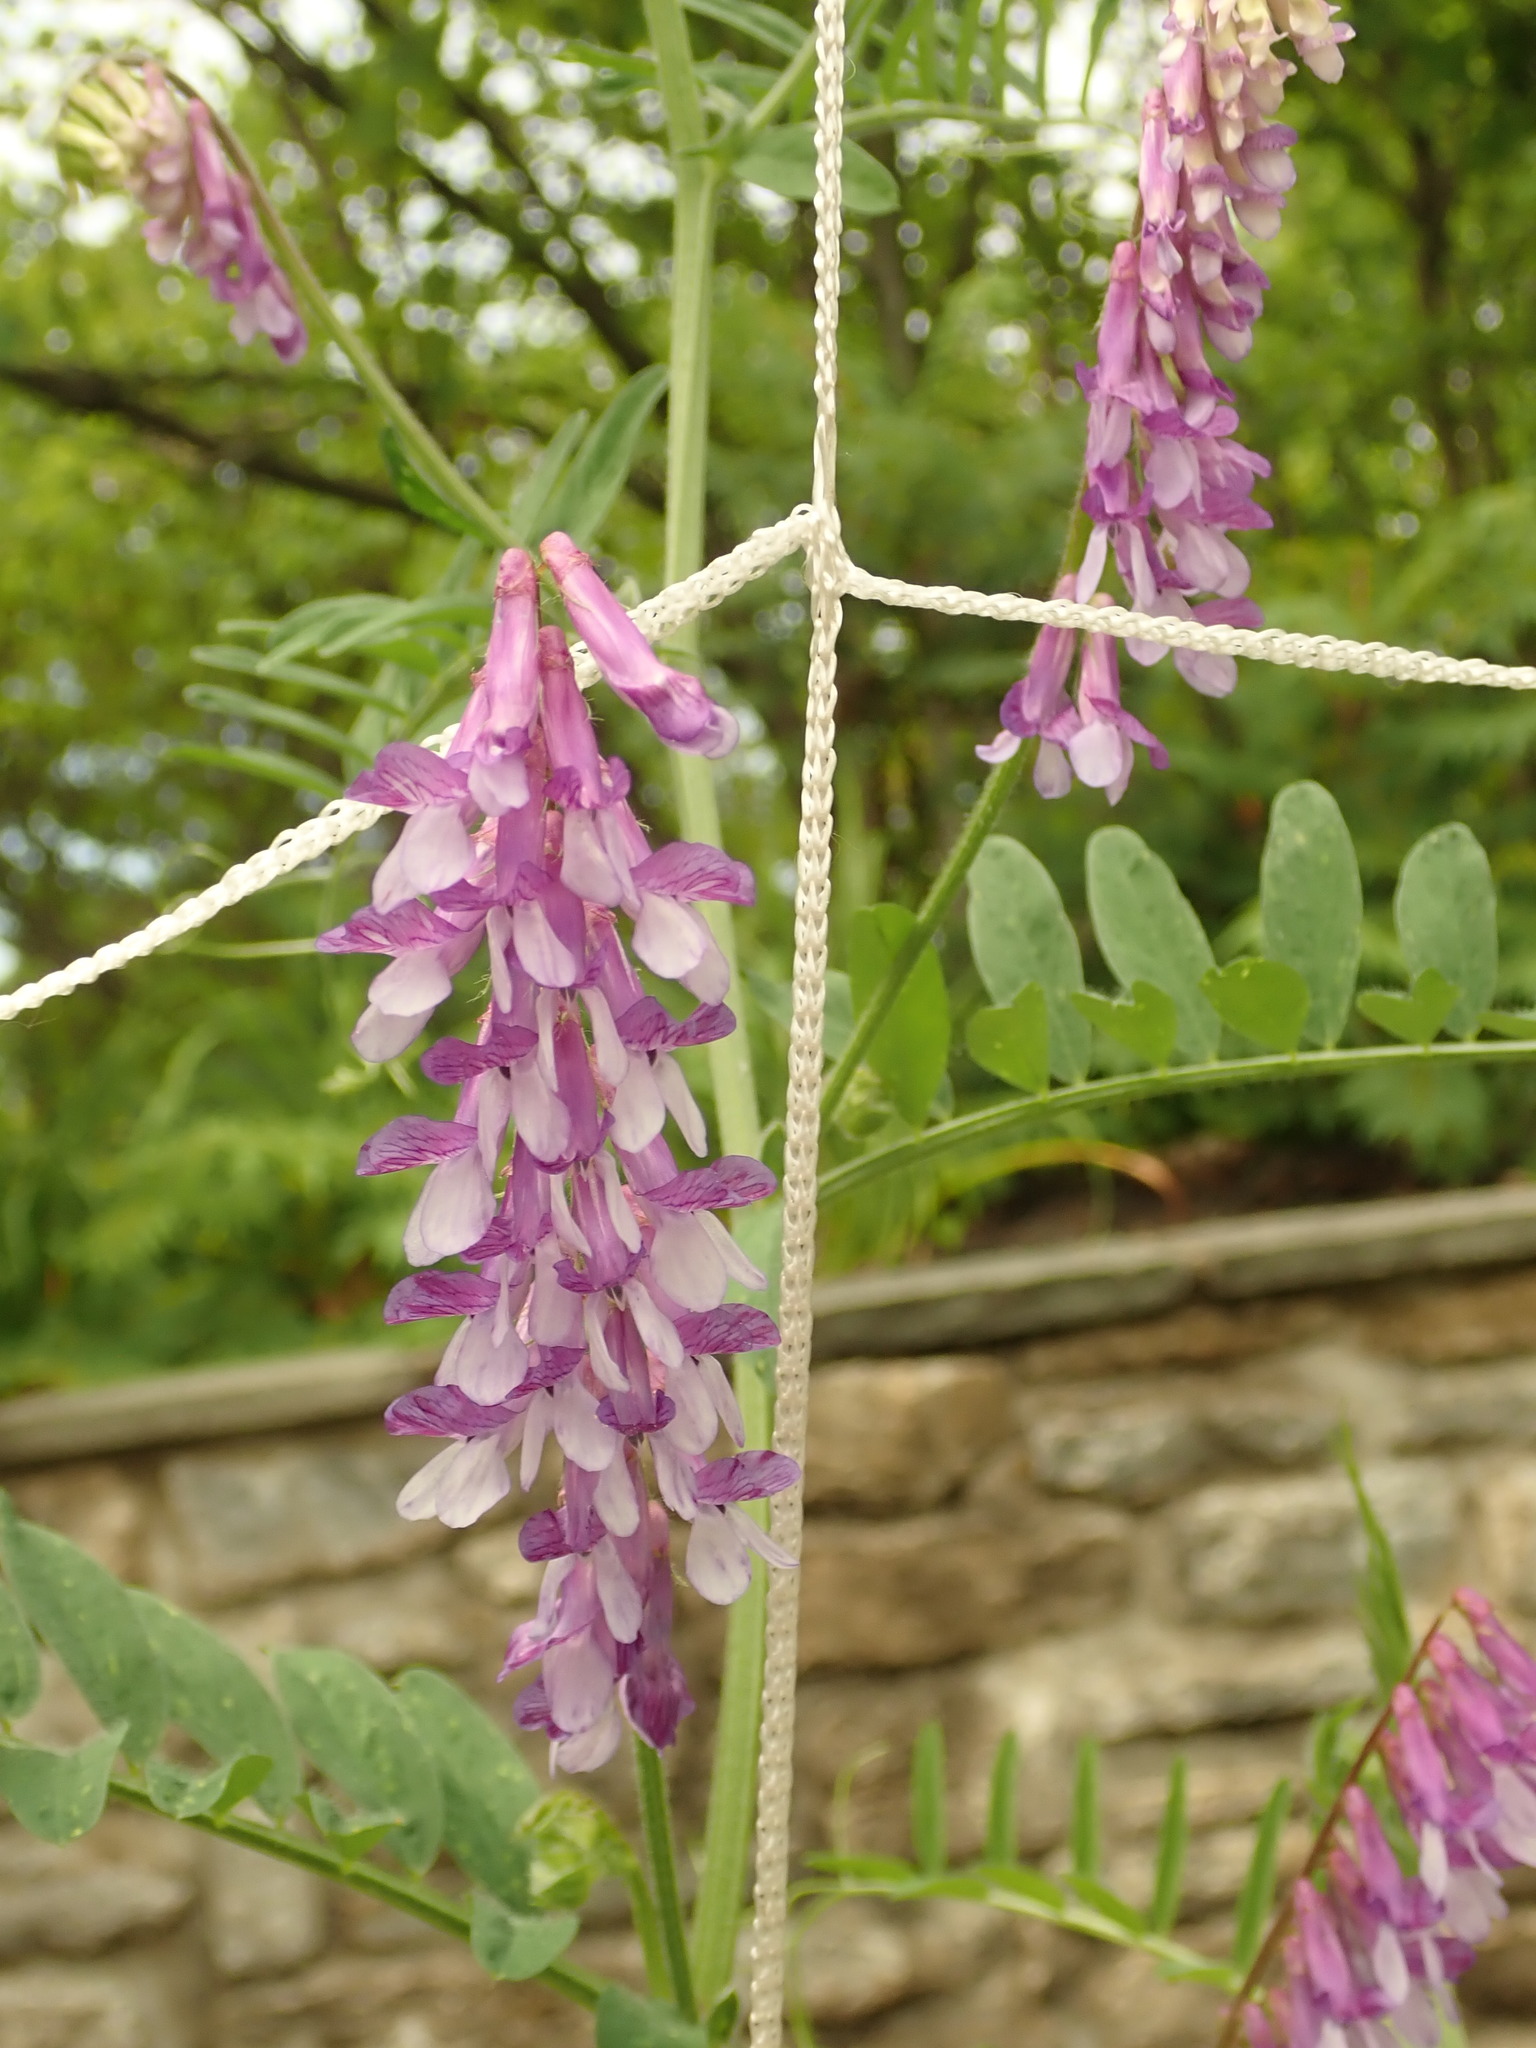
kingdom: Plantae
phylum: Tracheophyta
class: Magnoliopsida
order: Fabales
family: Fabaceae
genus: Vicia
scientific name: Vicia villosa
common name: Fodder vetch
